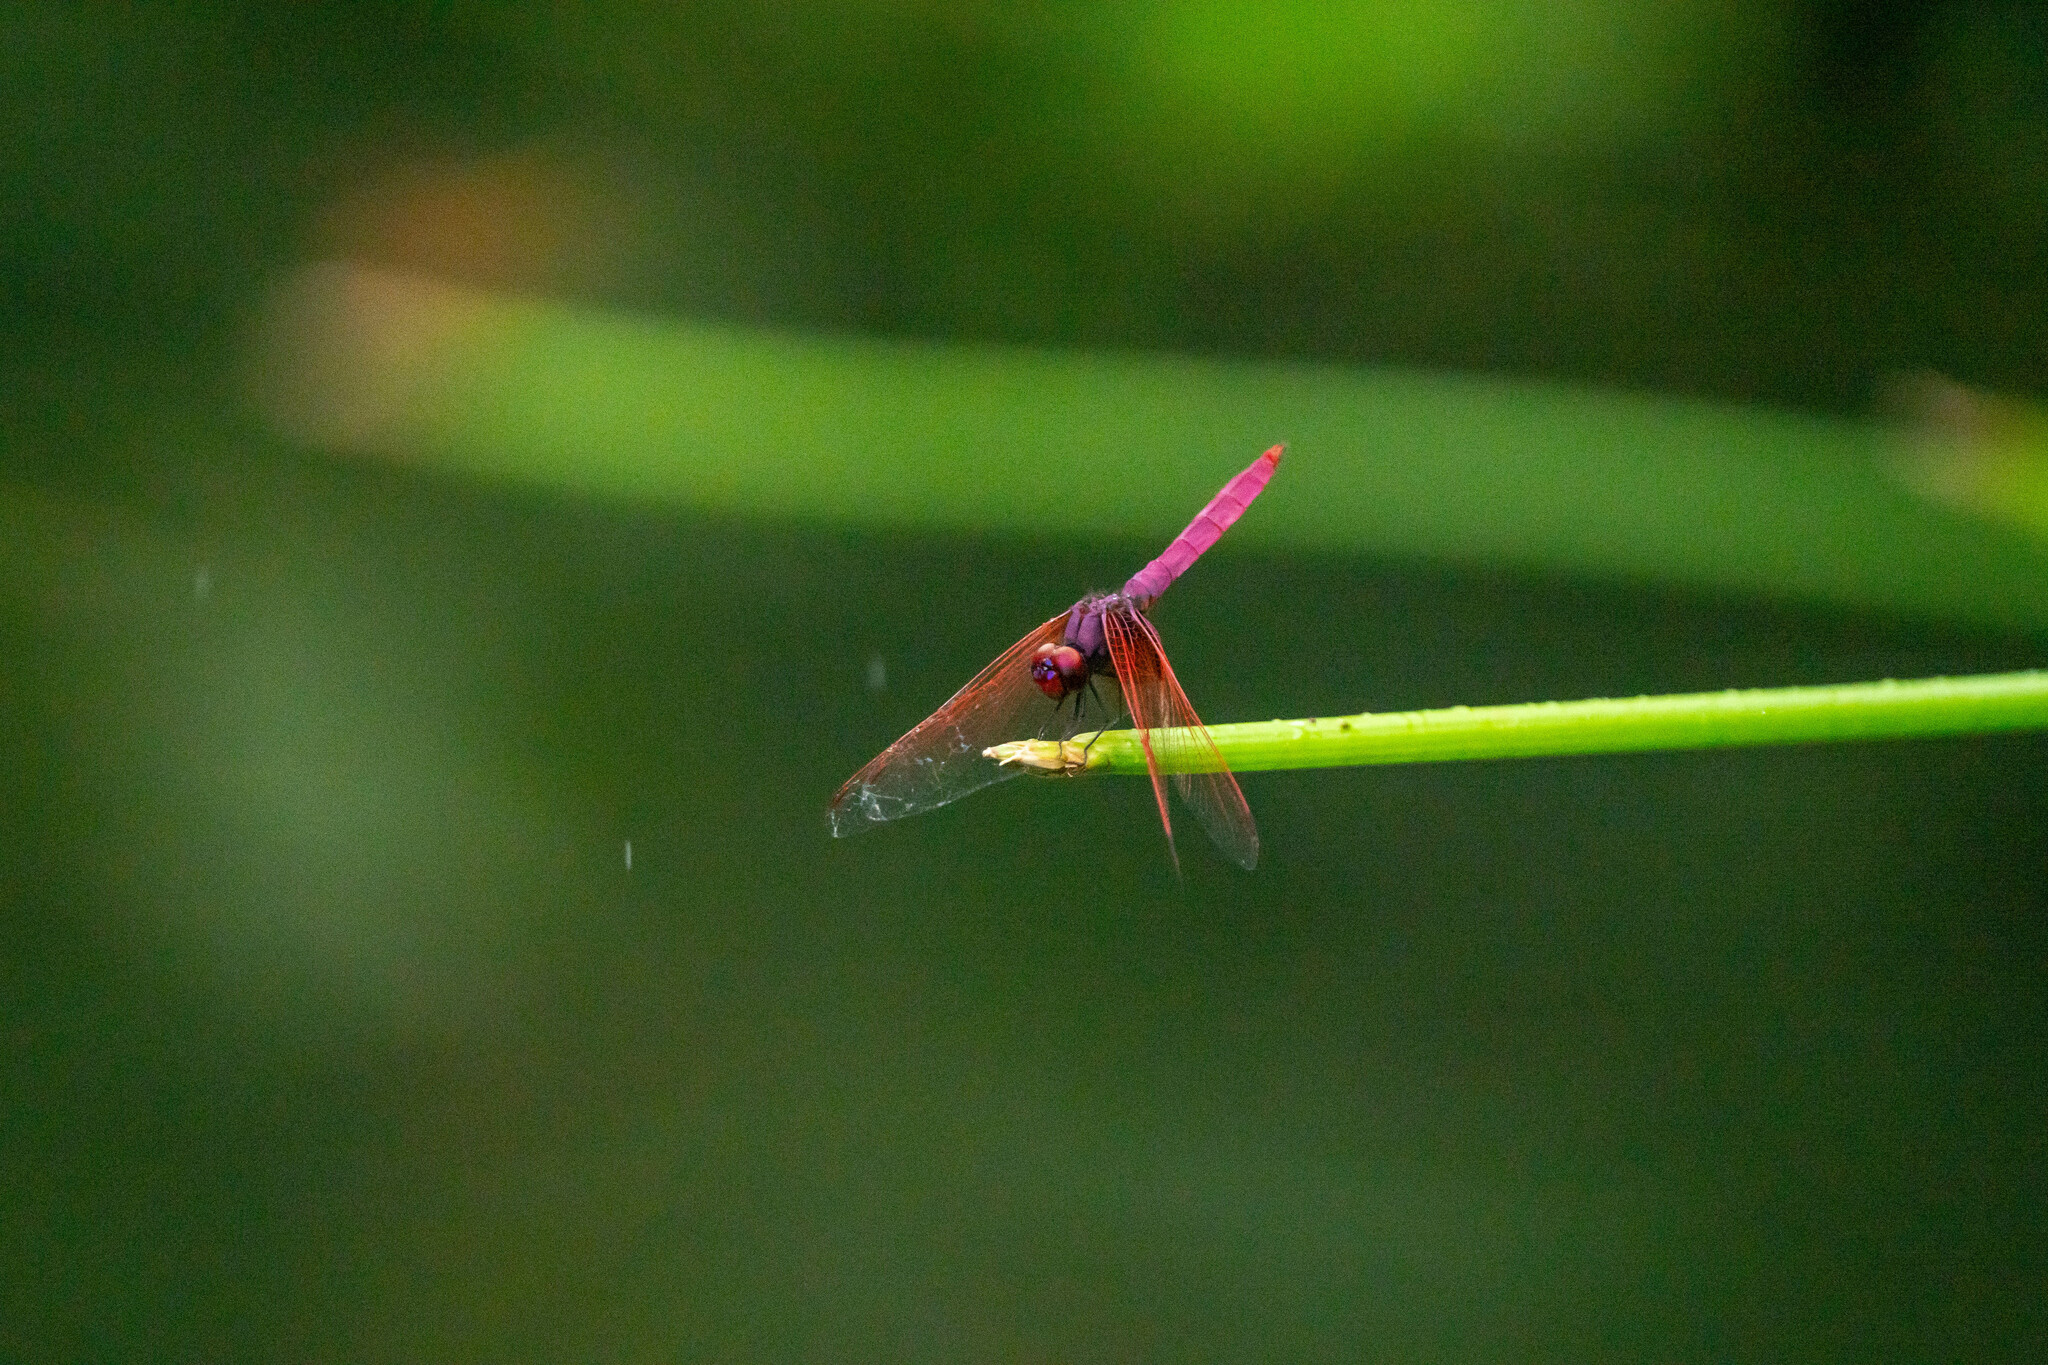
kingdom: Animalia
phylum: Arthropoda
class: Insecta
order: Odonata
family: Libellulidae
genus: Trithemis
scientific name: Trithemis aurora
